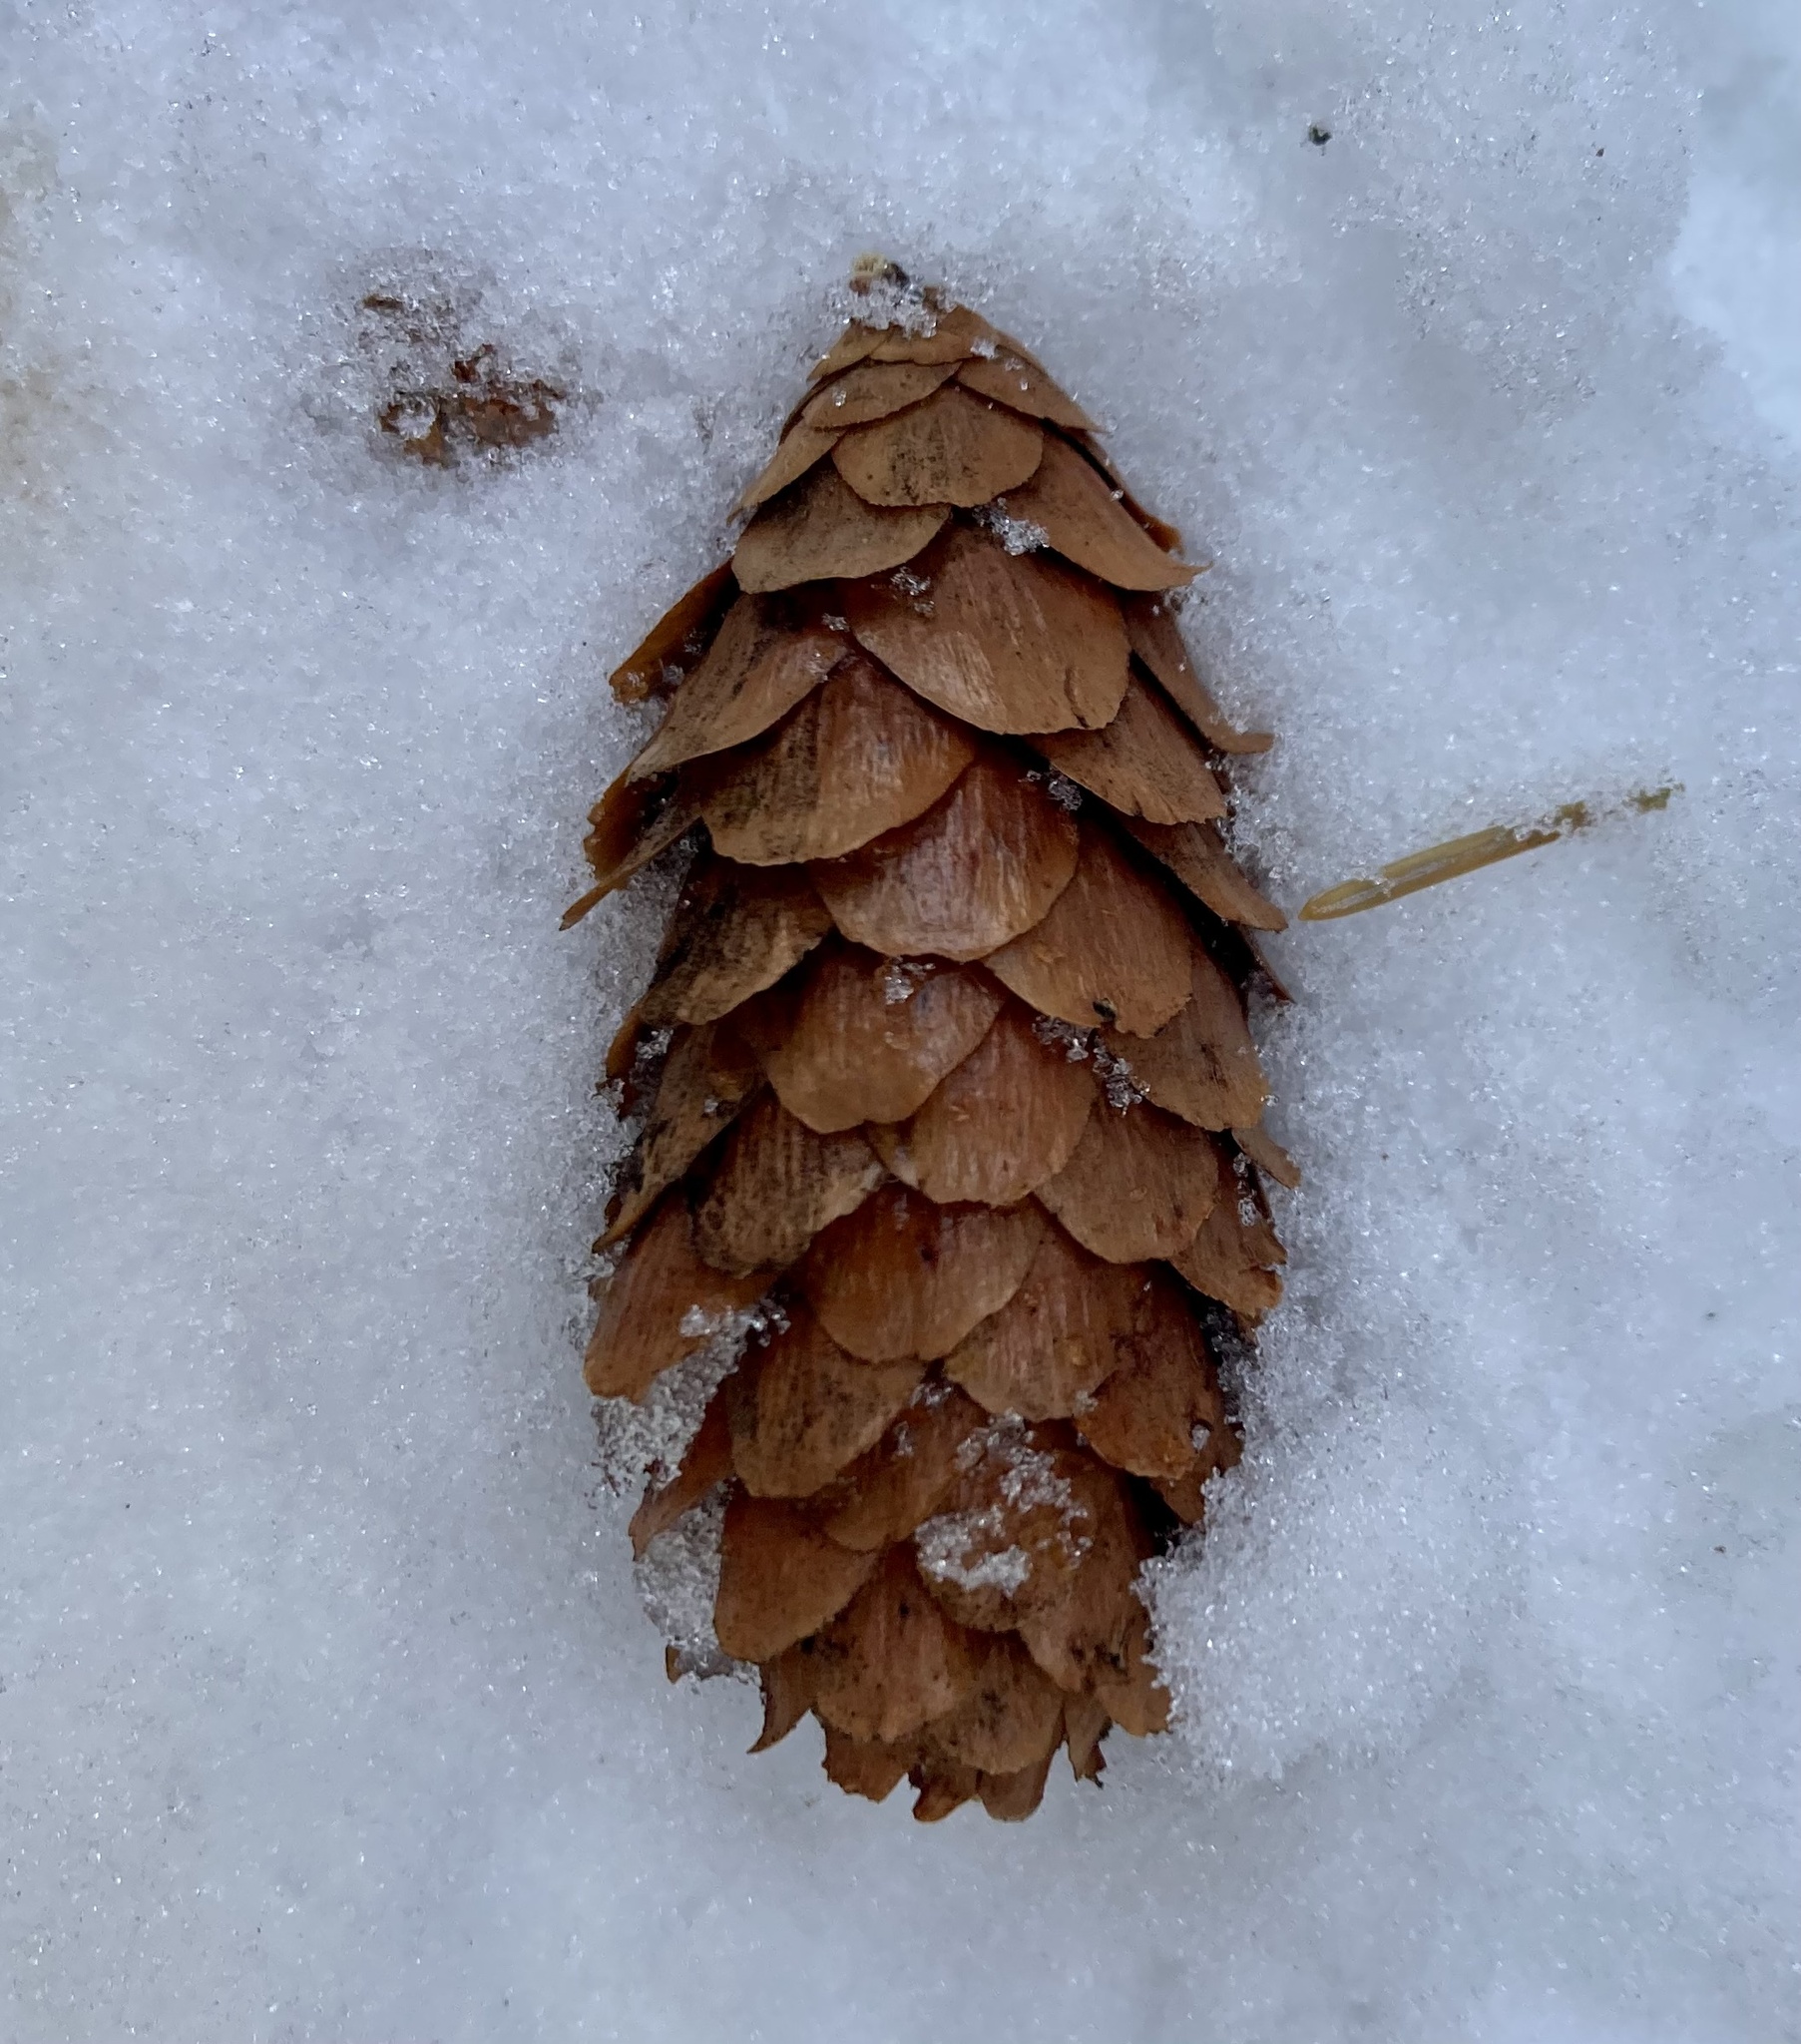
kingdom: Plantae
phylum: Tracheophyta
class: Pinopsida
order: Pinales
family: Pinaceae
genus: Picea
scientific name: Picea engelmannii
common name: Engelmann spruce
